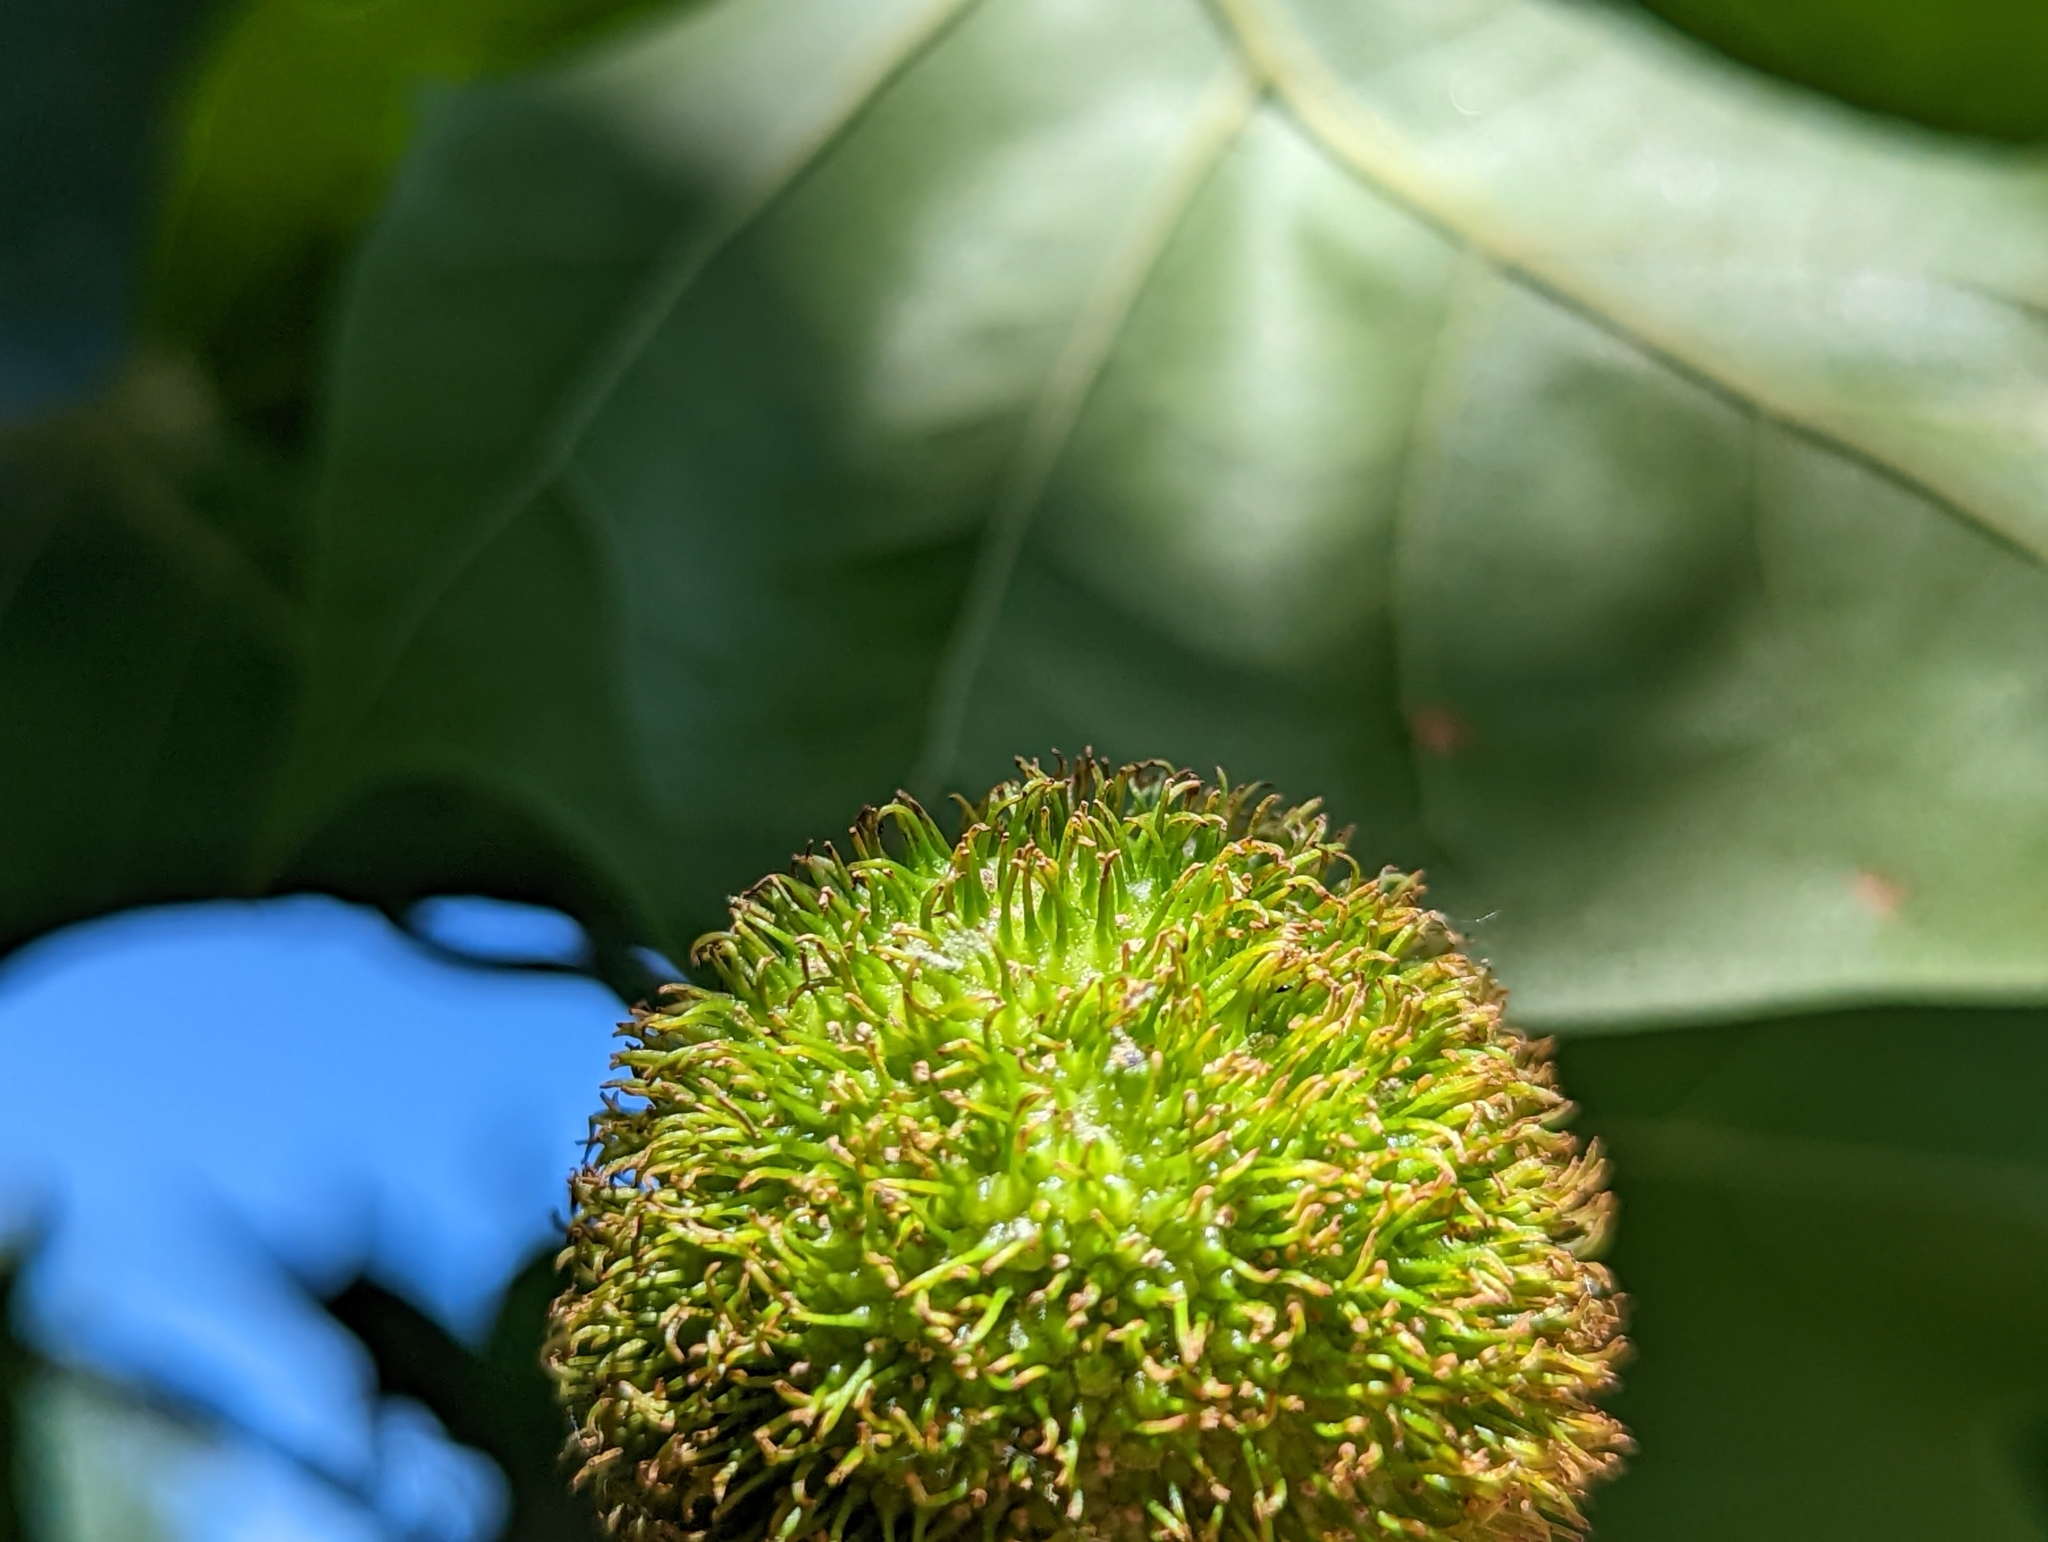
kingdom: Plantae
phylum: Tracheophyta
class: Magnoliopsida
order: Proteales
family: Platanaceae
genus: Platanus
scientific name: Platanus occidentalis
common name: American sycamore
